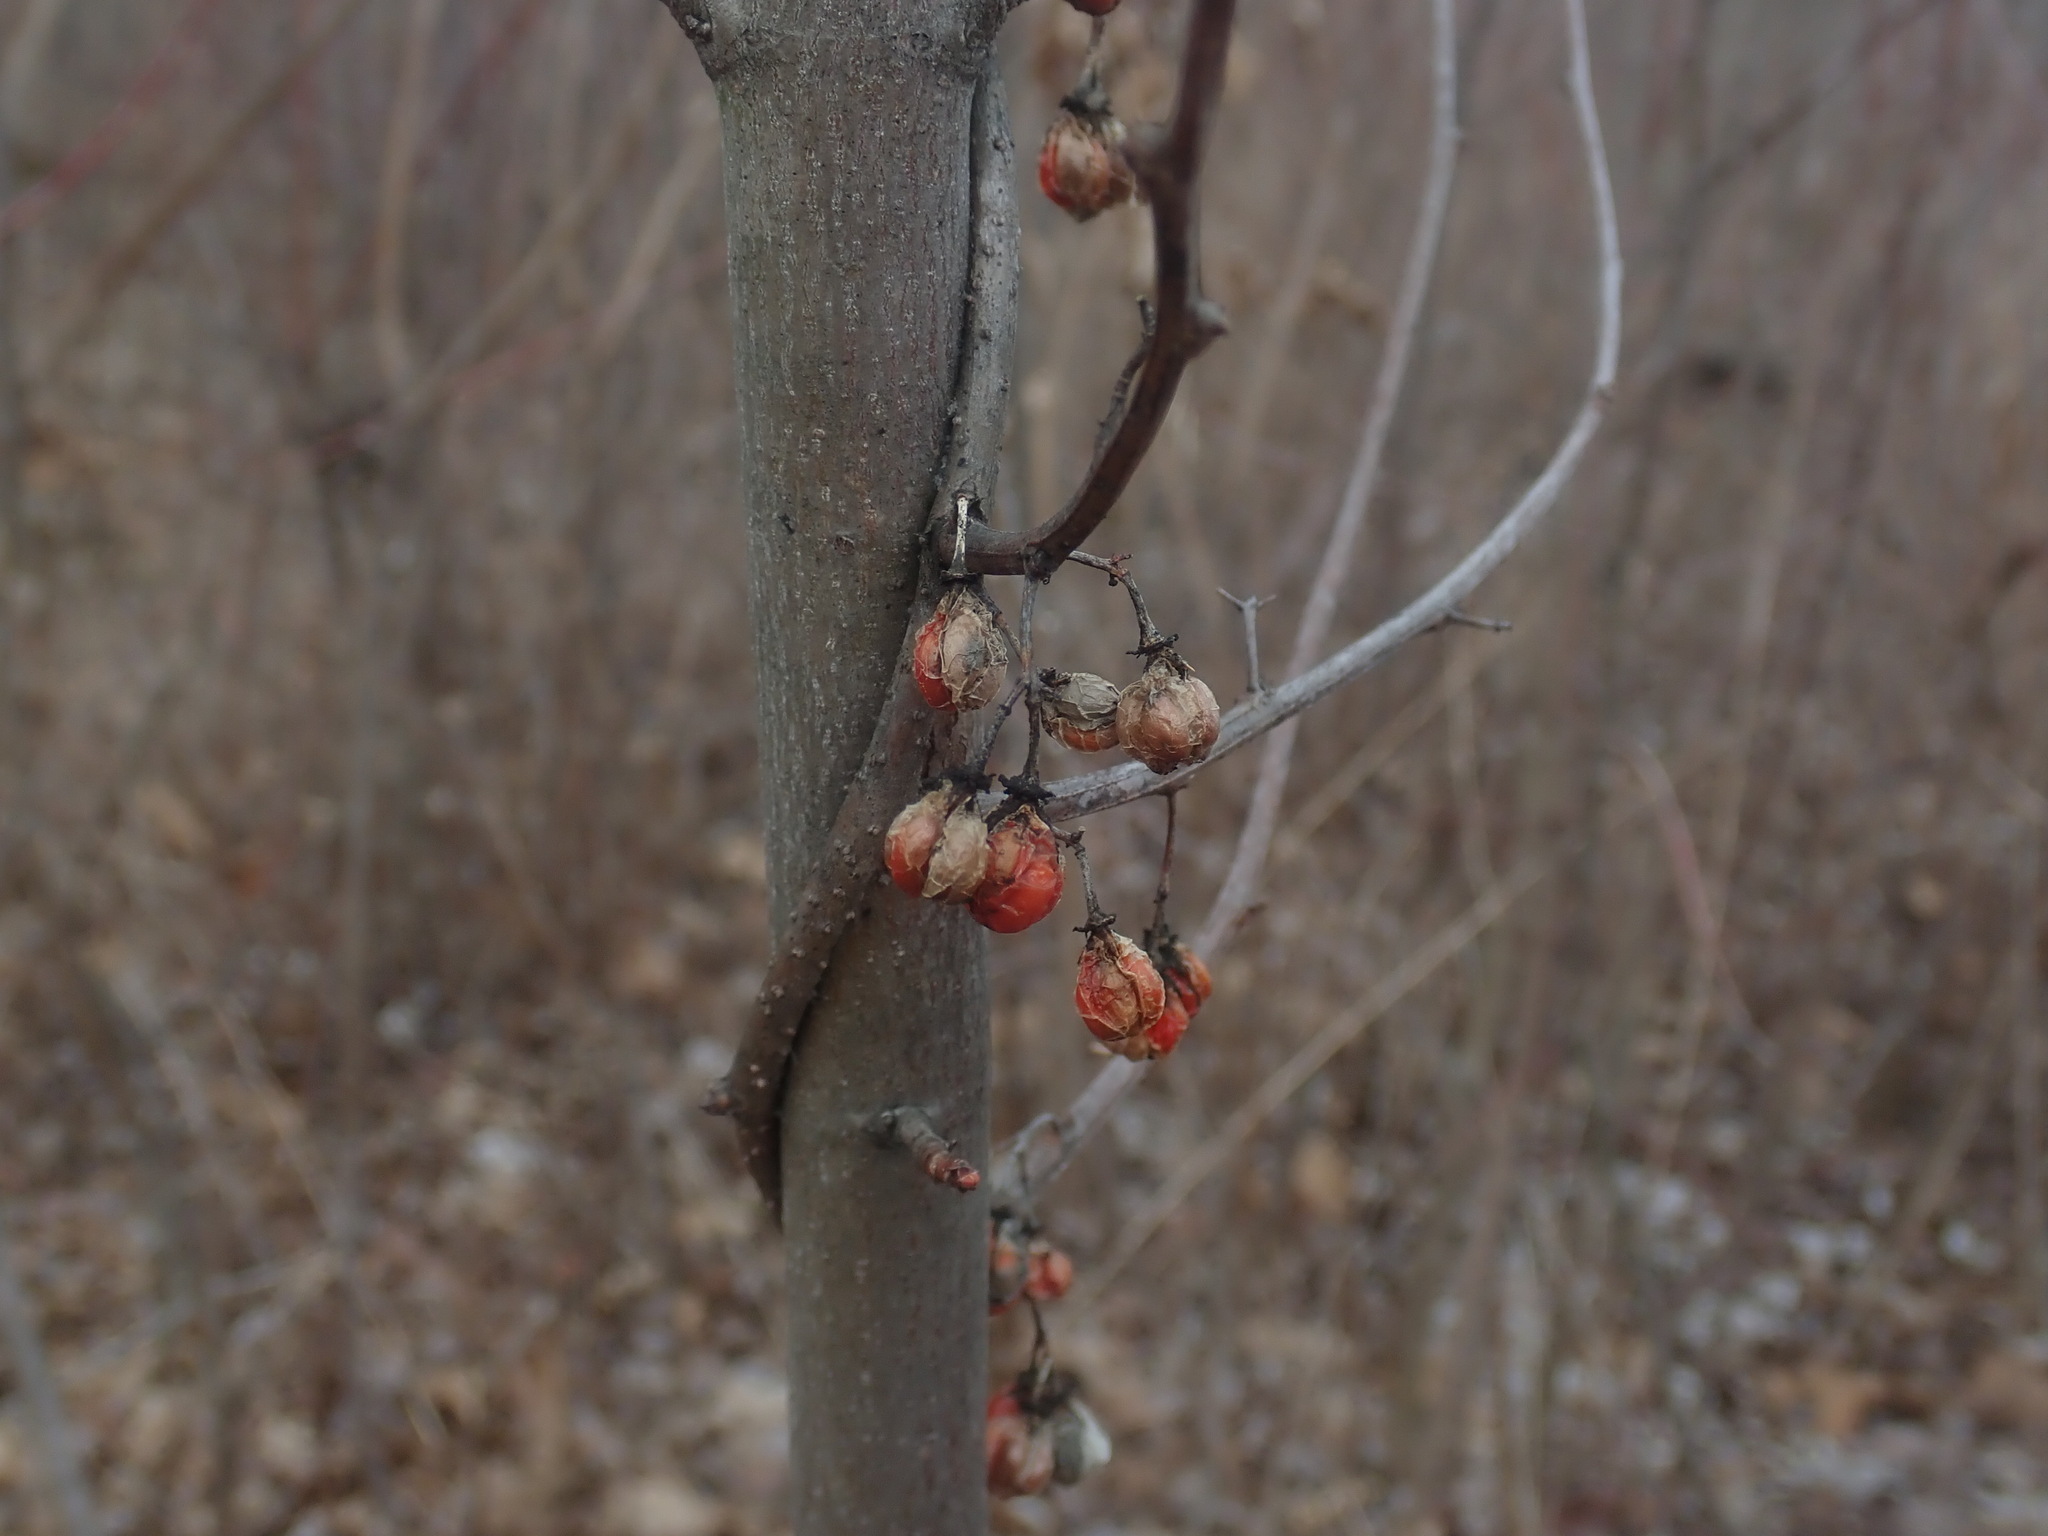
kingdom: Plantae
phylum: Tracheophyta
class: Magnoliopsida
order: Celastrales
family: Celastraceae
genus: Celastrus
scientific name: Celastrus orbiculatus
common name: Oriental bittersweet
